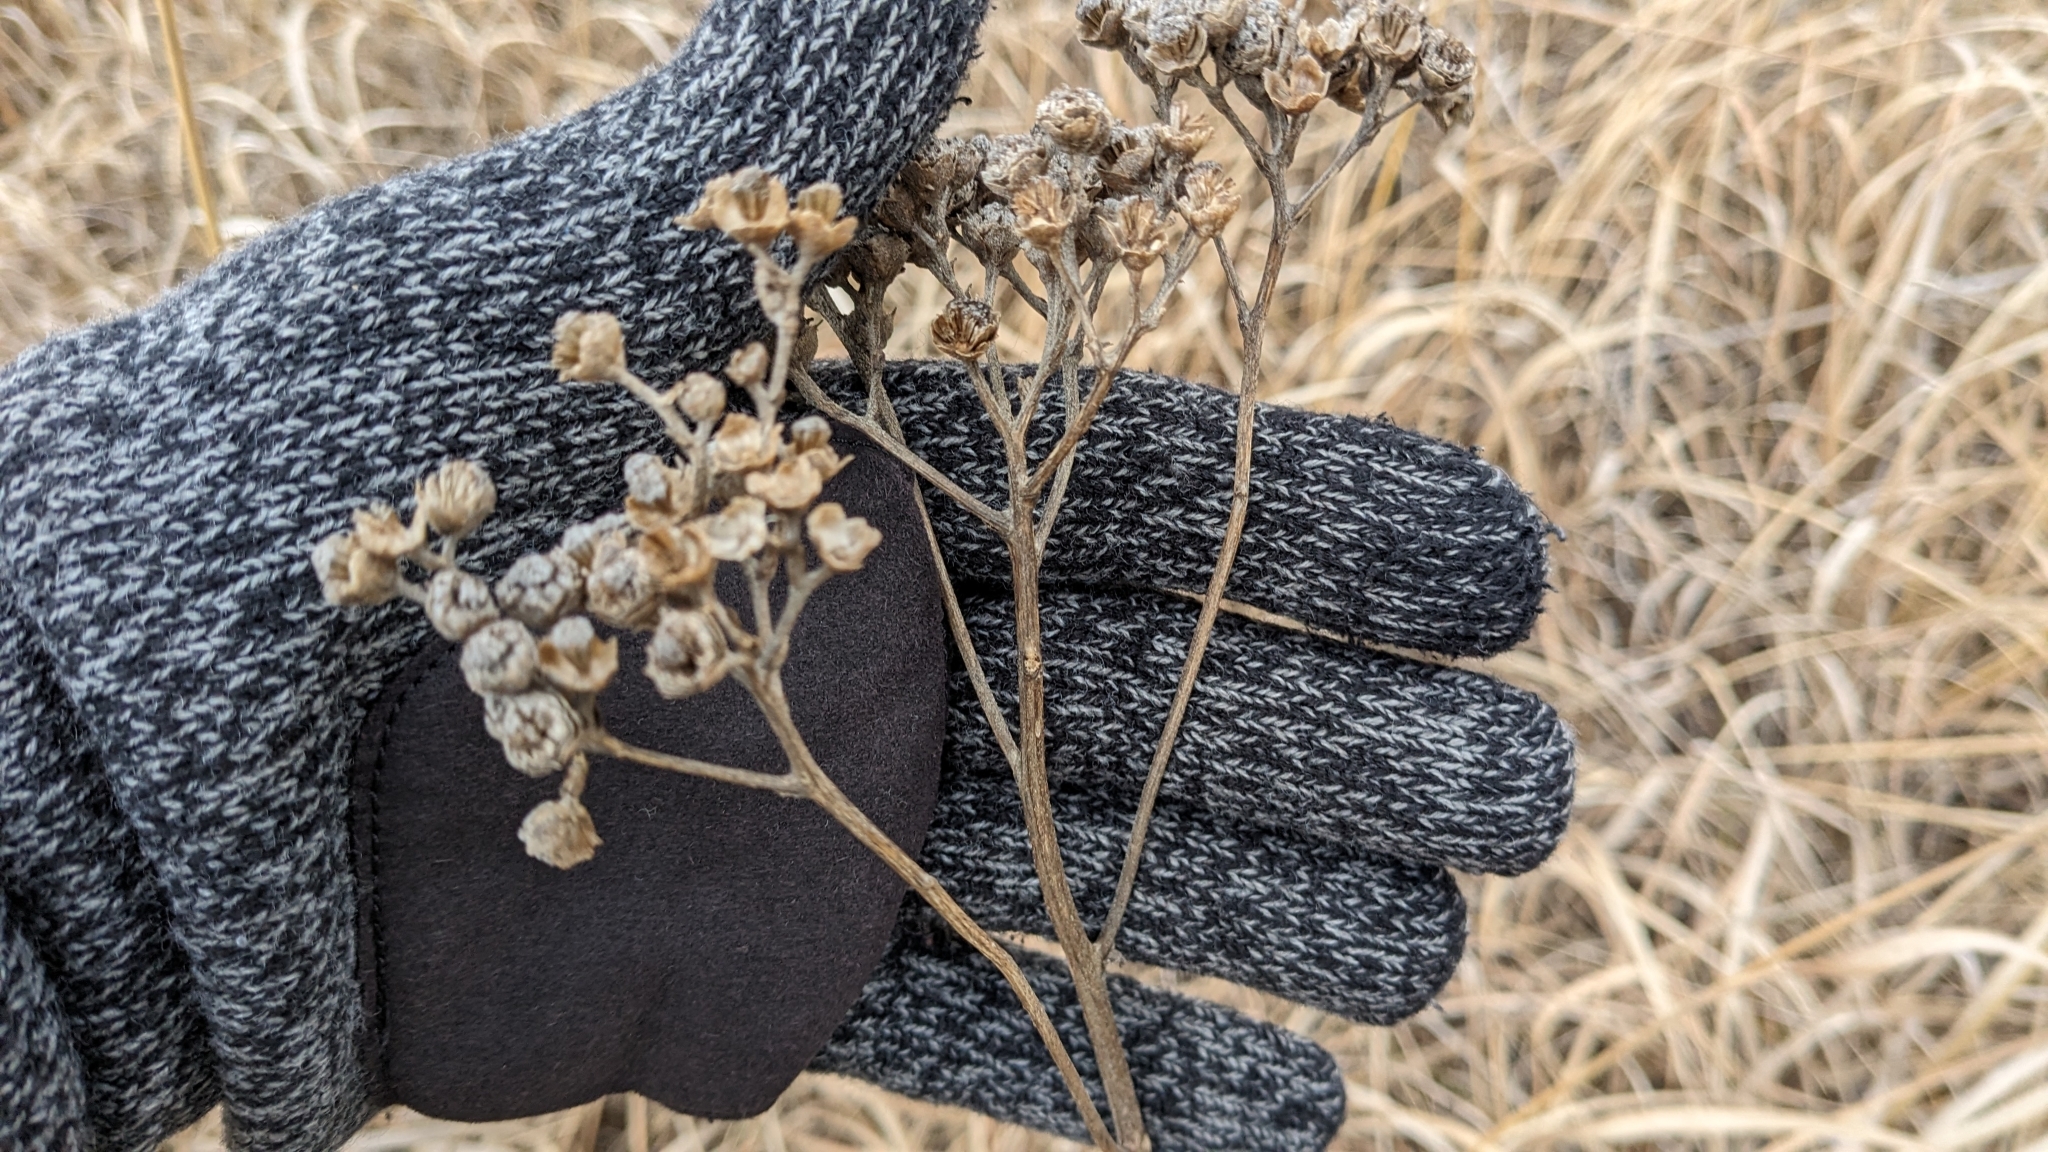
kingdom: Plantae
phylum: Tracheophyta
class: Magnoliopsida
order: Asterales
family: Asteraceae
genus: Parthenium
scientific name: Parthenium integrifolium
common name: American feverfew
